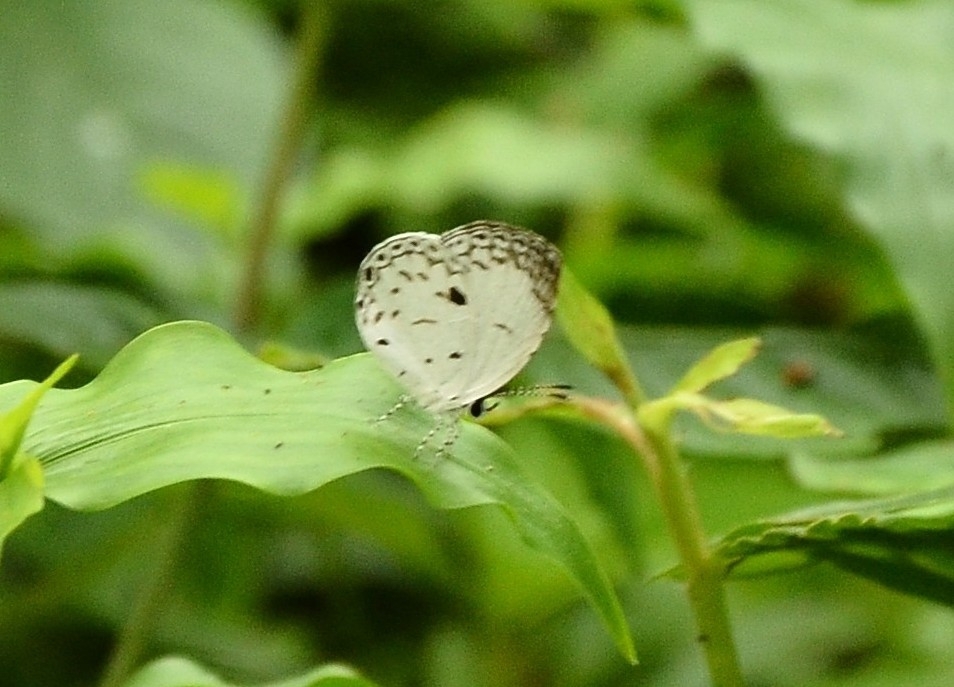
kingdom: Animalia
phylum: Arthropoda
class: Insecta
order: Lepidoptera
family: Lycaenidae
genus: Neopithecops
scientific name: Neopithecops zalmora
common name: Quaker
